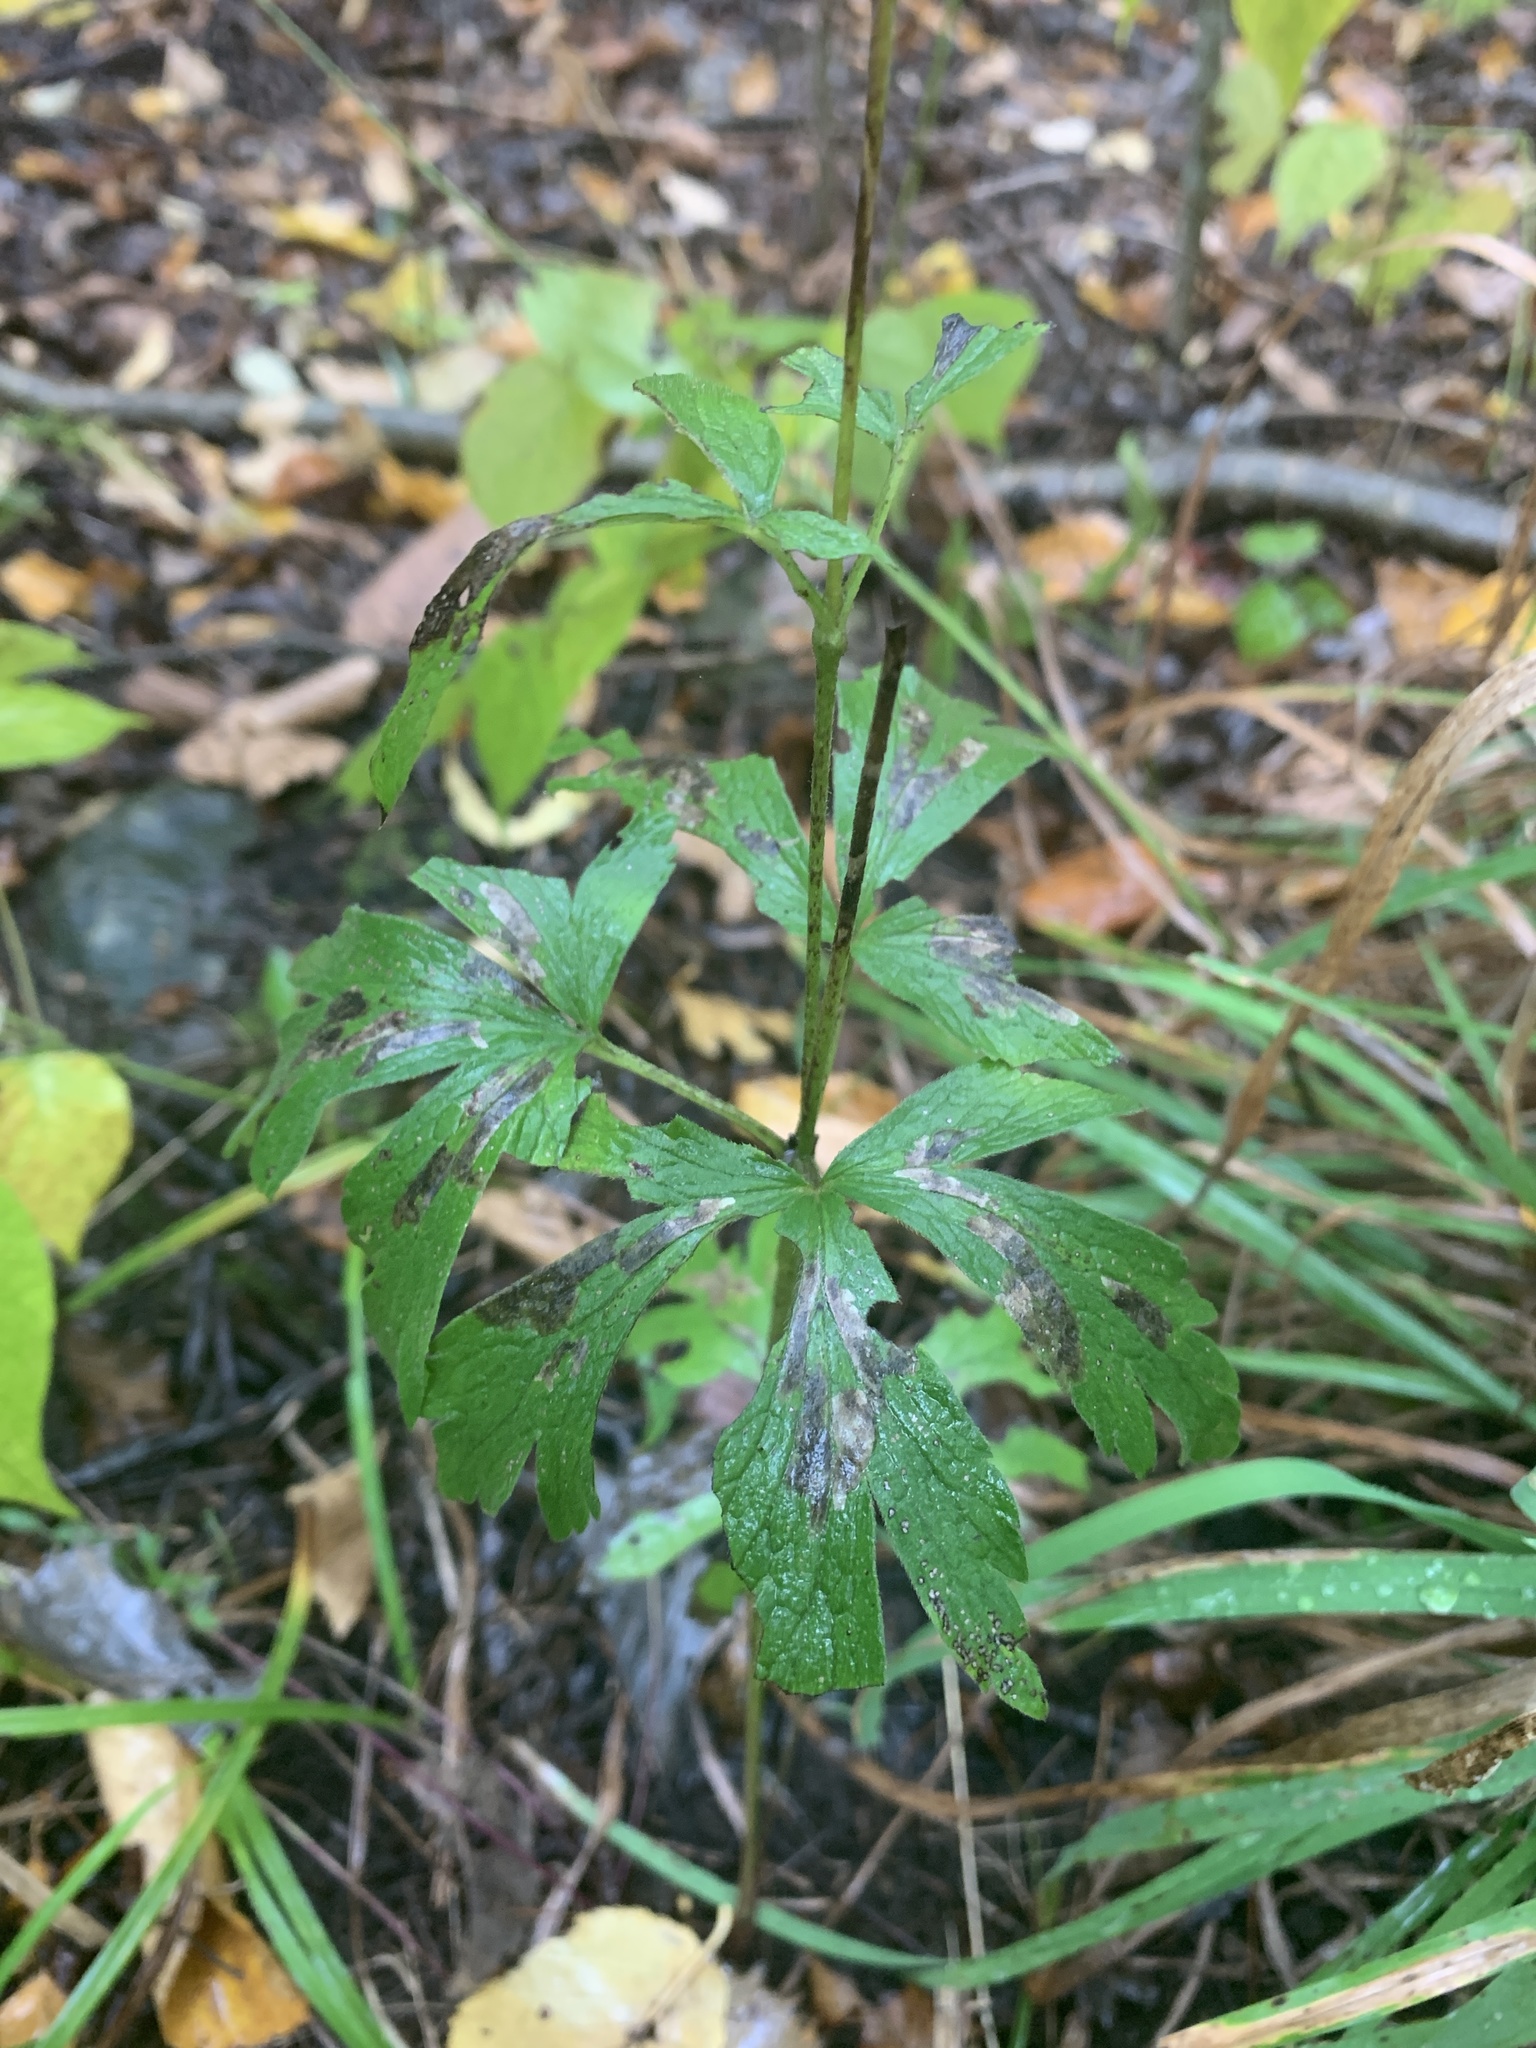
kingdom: Plantae
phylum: Tracheophyta
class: Magnoliopsida
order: Ranunculales
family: Ranunculaceae
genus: Anemone
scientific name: Anemone cylindrica
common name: Candle anemone
